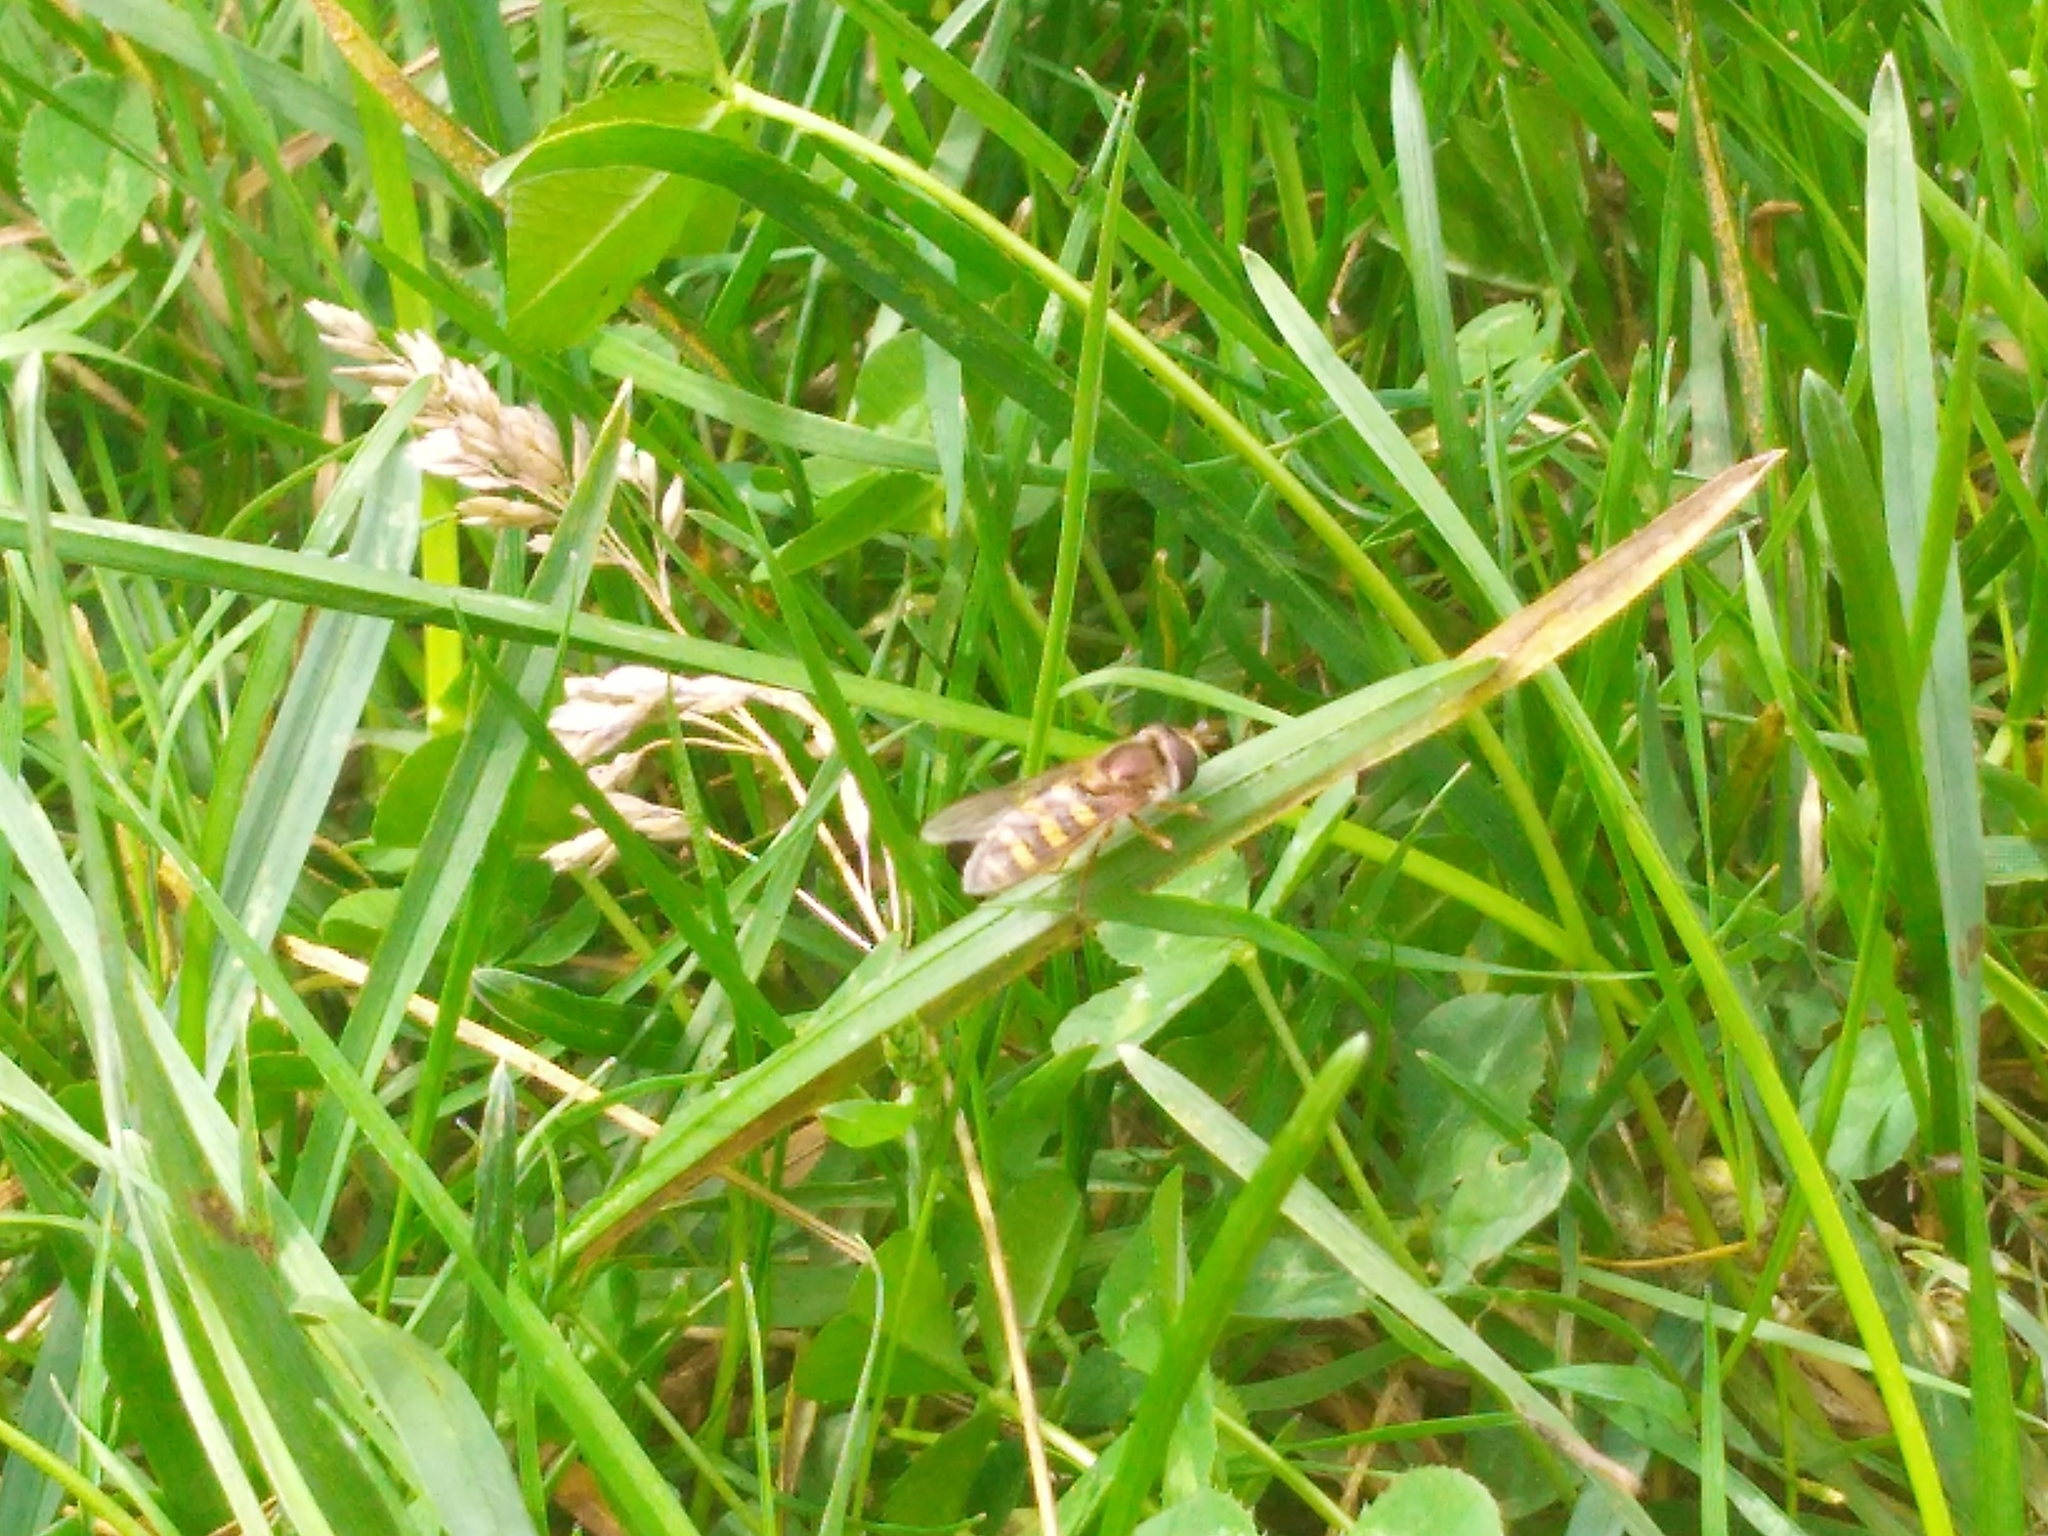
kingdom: Animalia
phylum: Arthropoda
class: Insecta
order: Diptera
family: Syrphidae
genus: Eupeodes
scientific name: Eupeodes fumipennis
